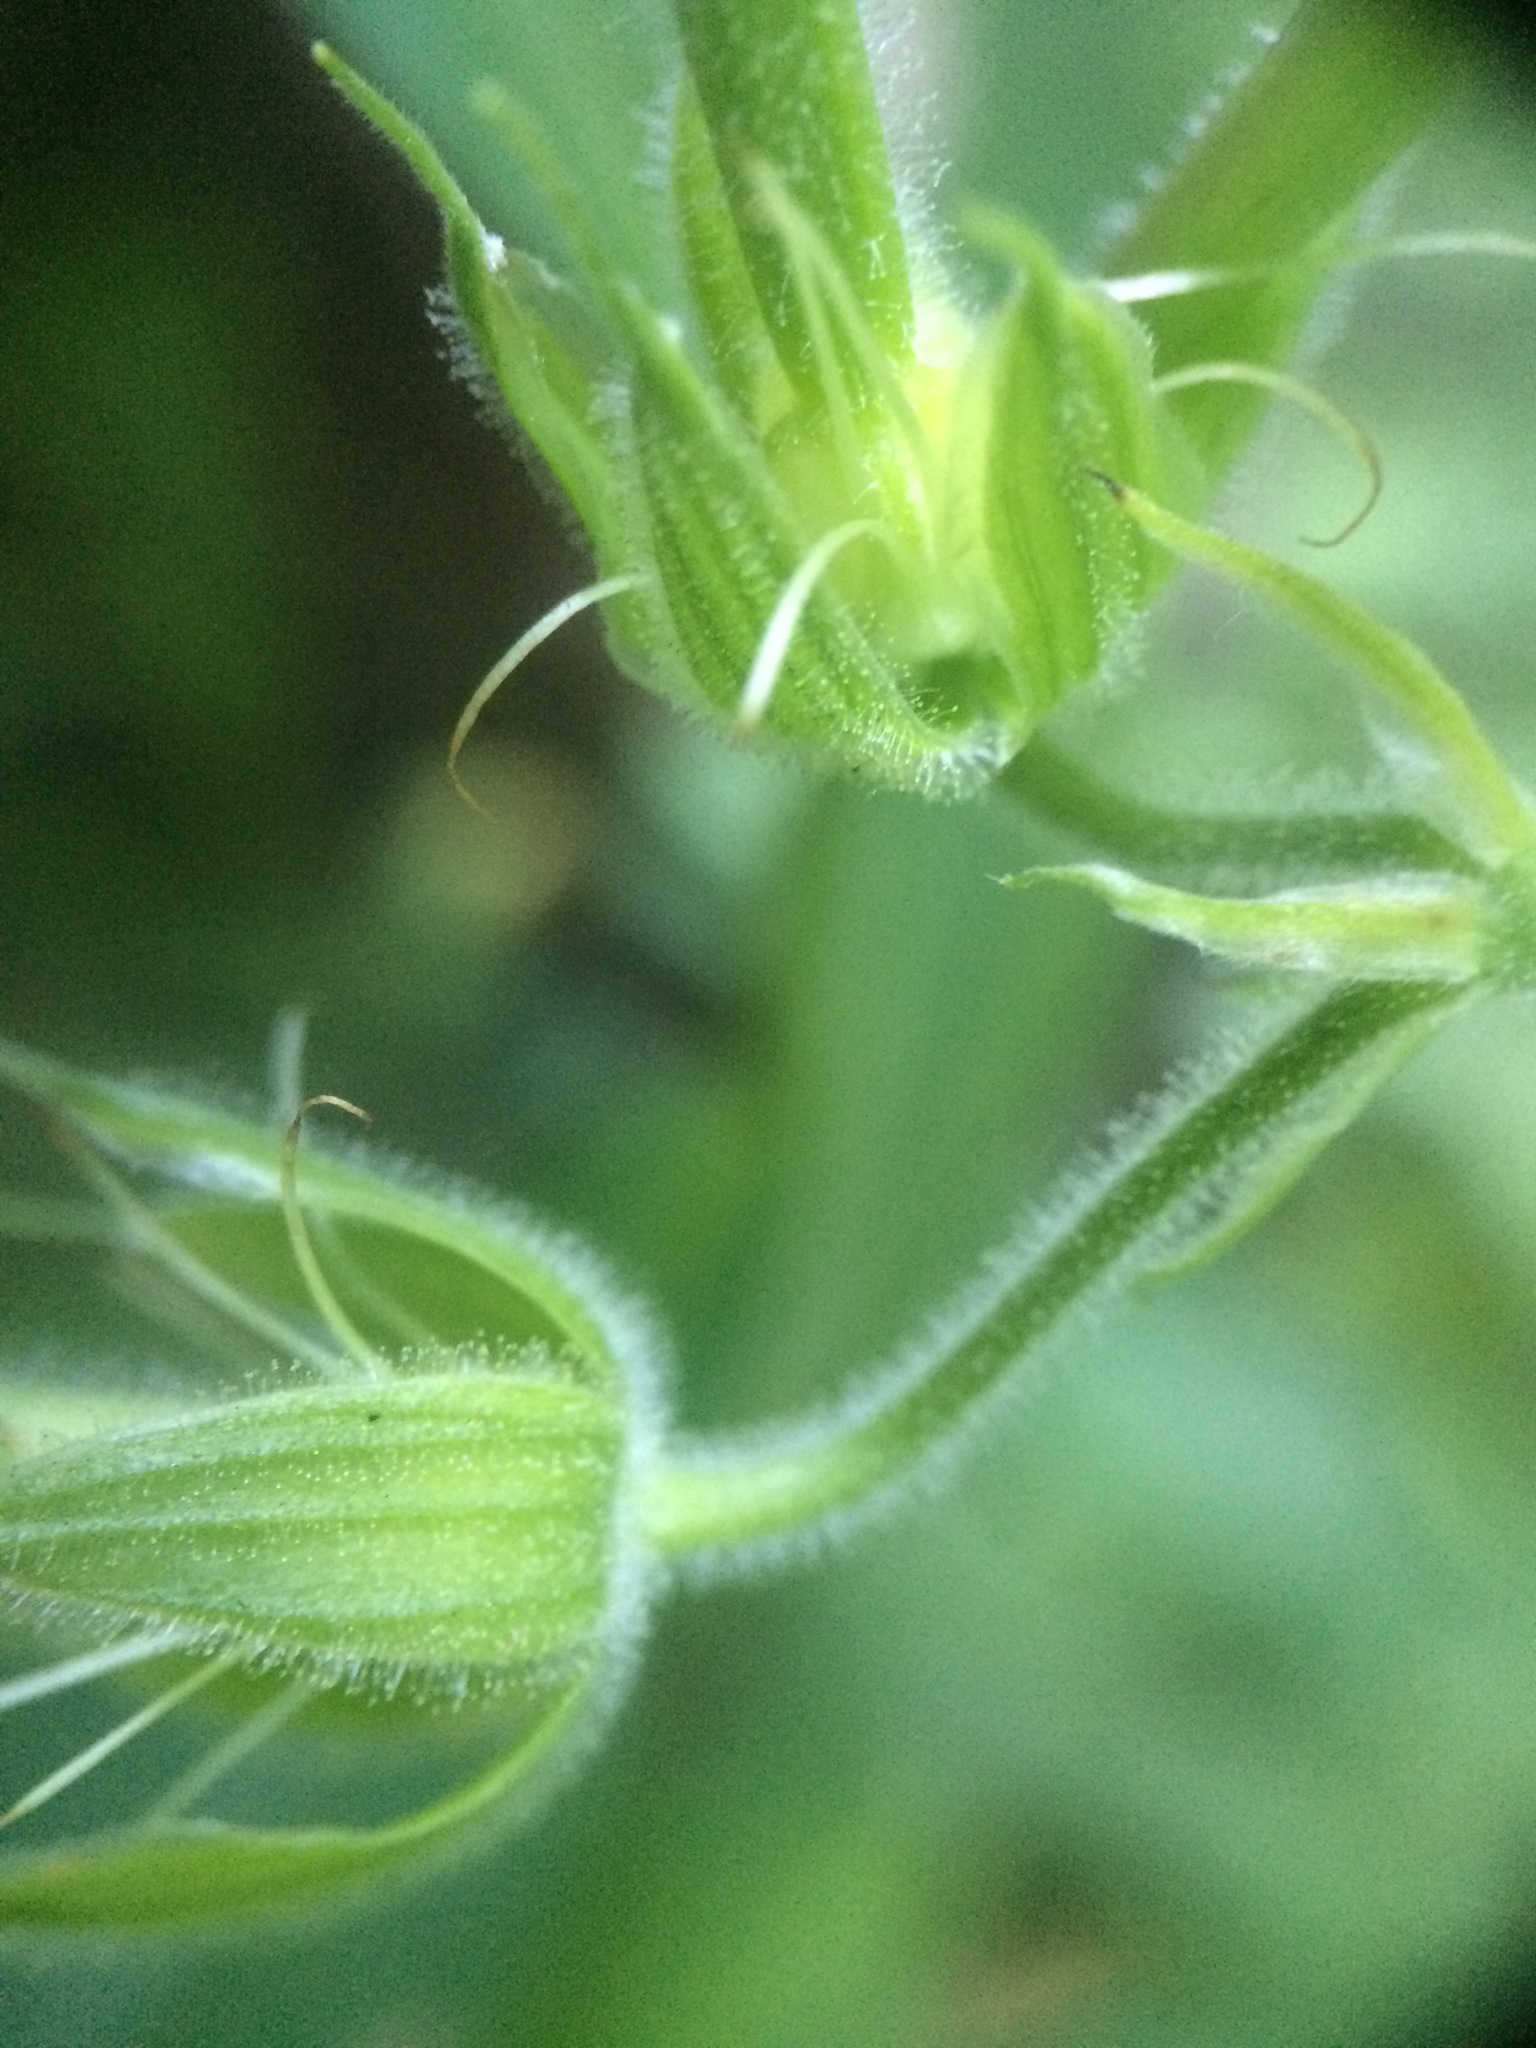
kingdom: Plantae
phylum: Tracheophyta
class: Magnoliopsida
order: Geraniales
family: Geraniaceae
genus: Geranium
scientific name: Geranium pratense
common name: Meadow crane's-bill
